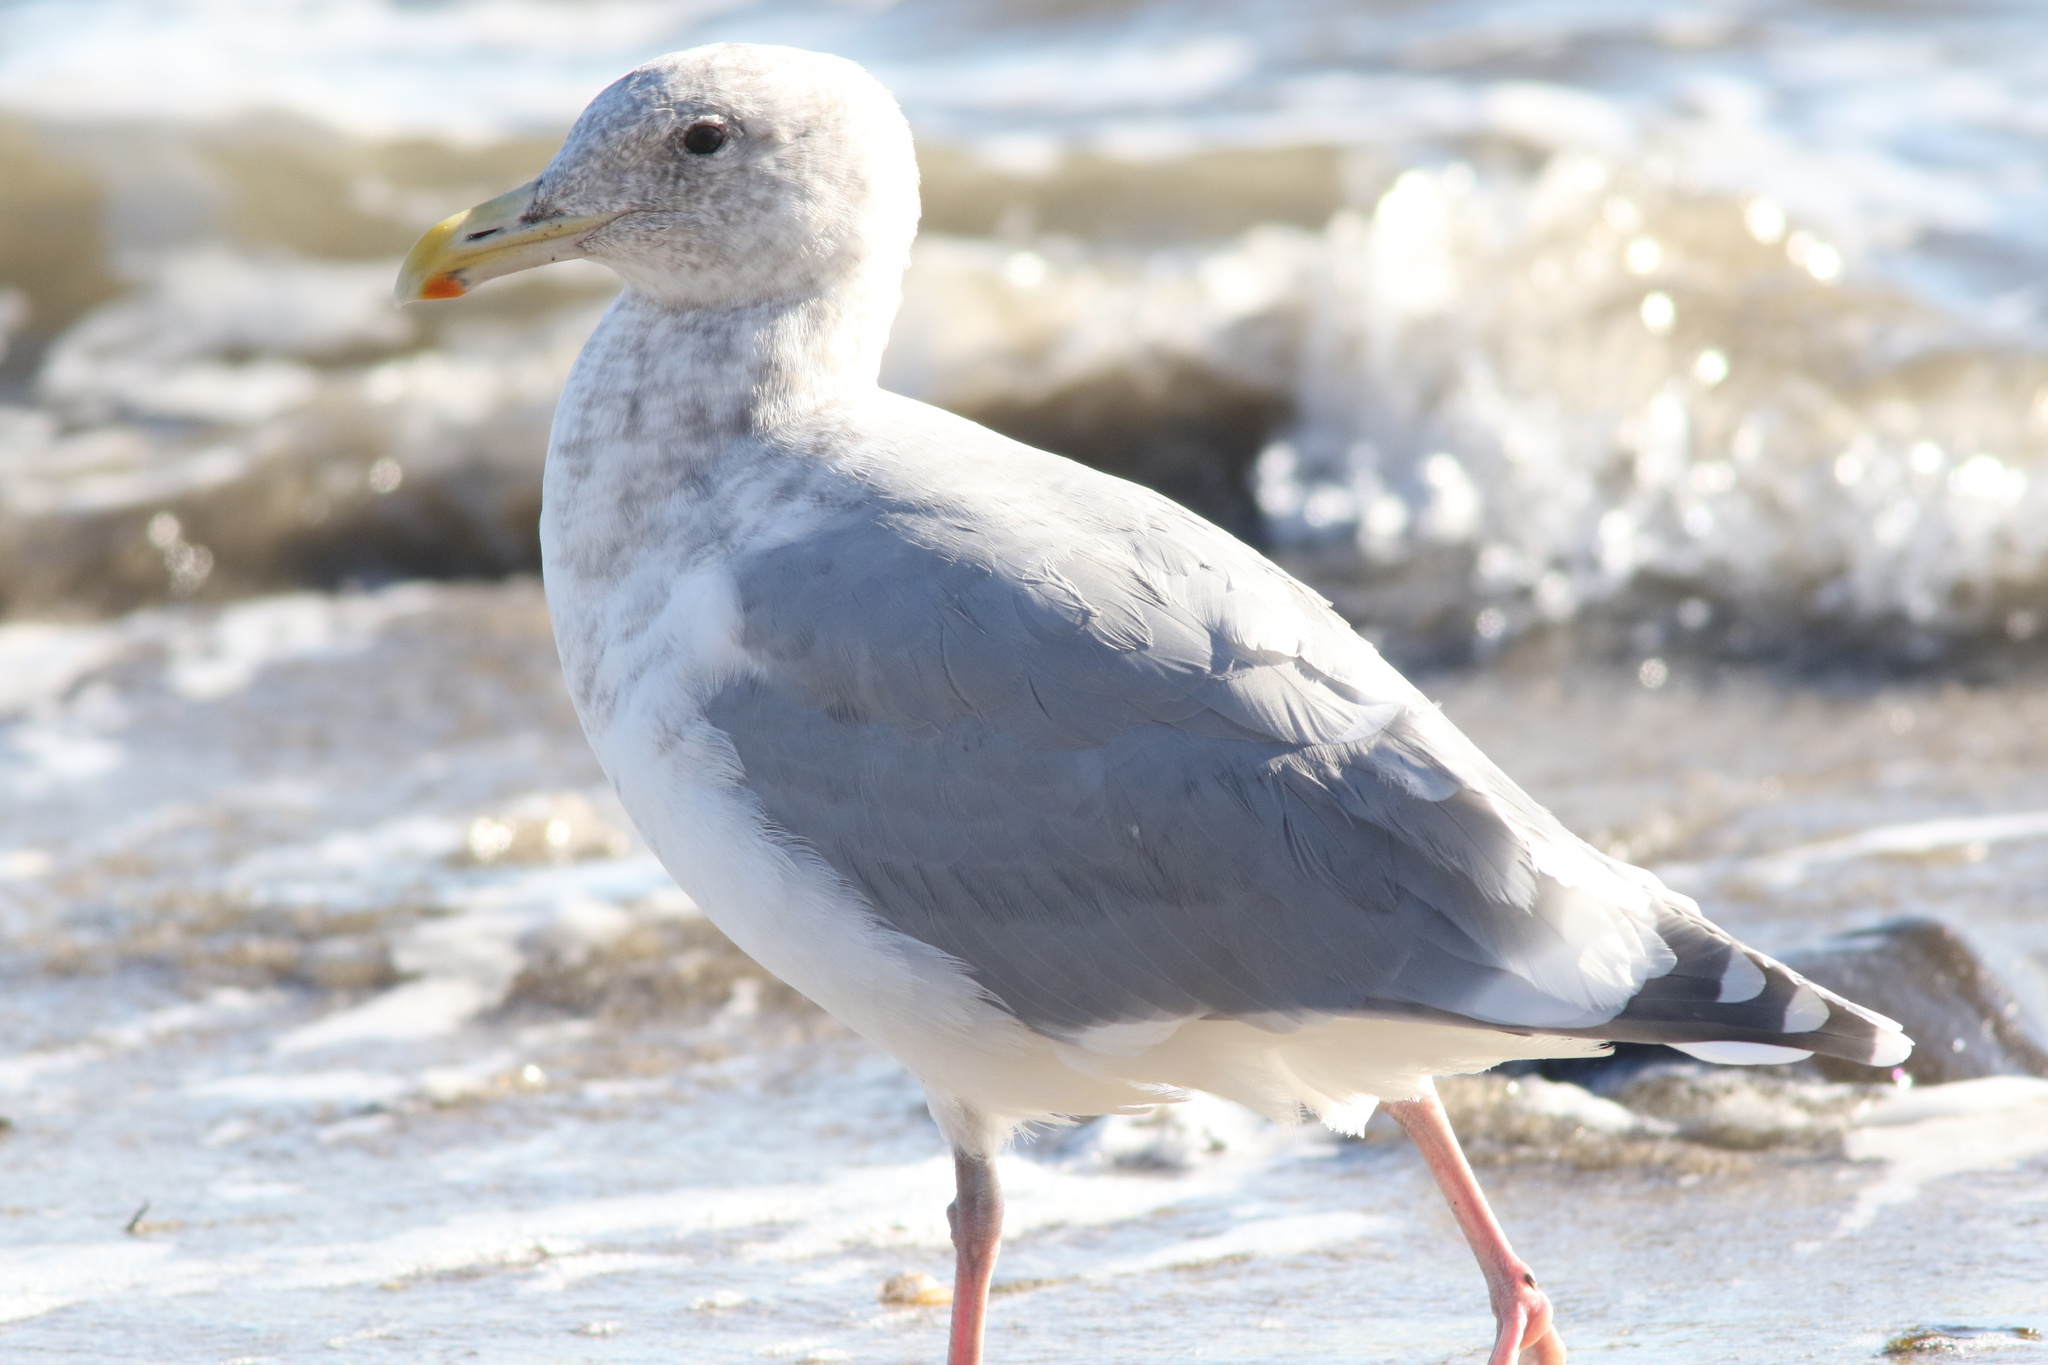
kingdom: Animalia
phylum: Chordata
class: Aves
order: Charadriiformes
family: Laridae
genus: Larus
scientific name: Larus
